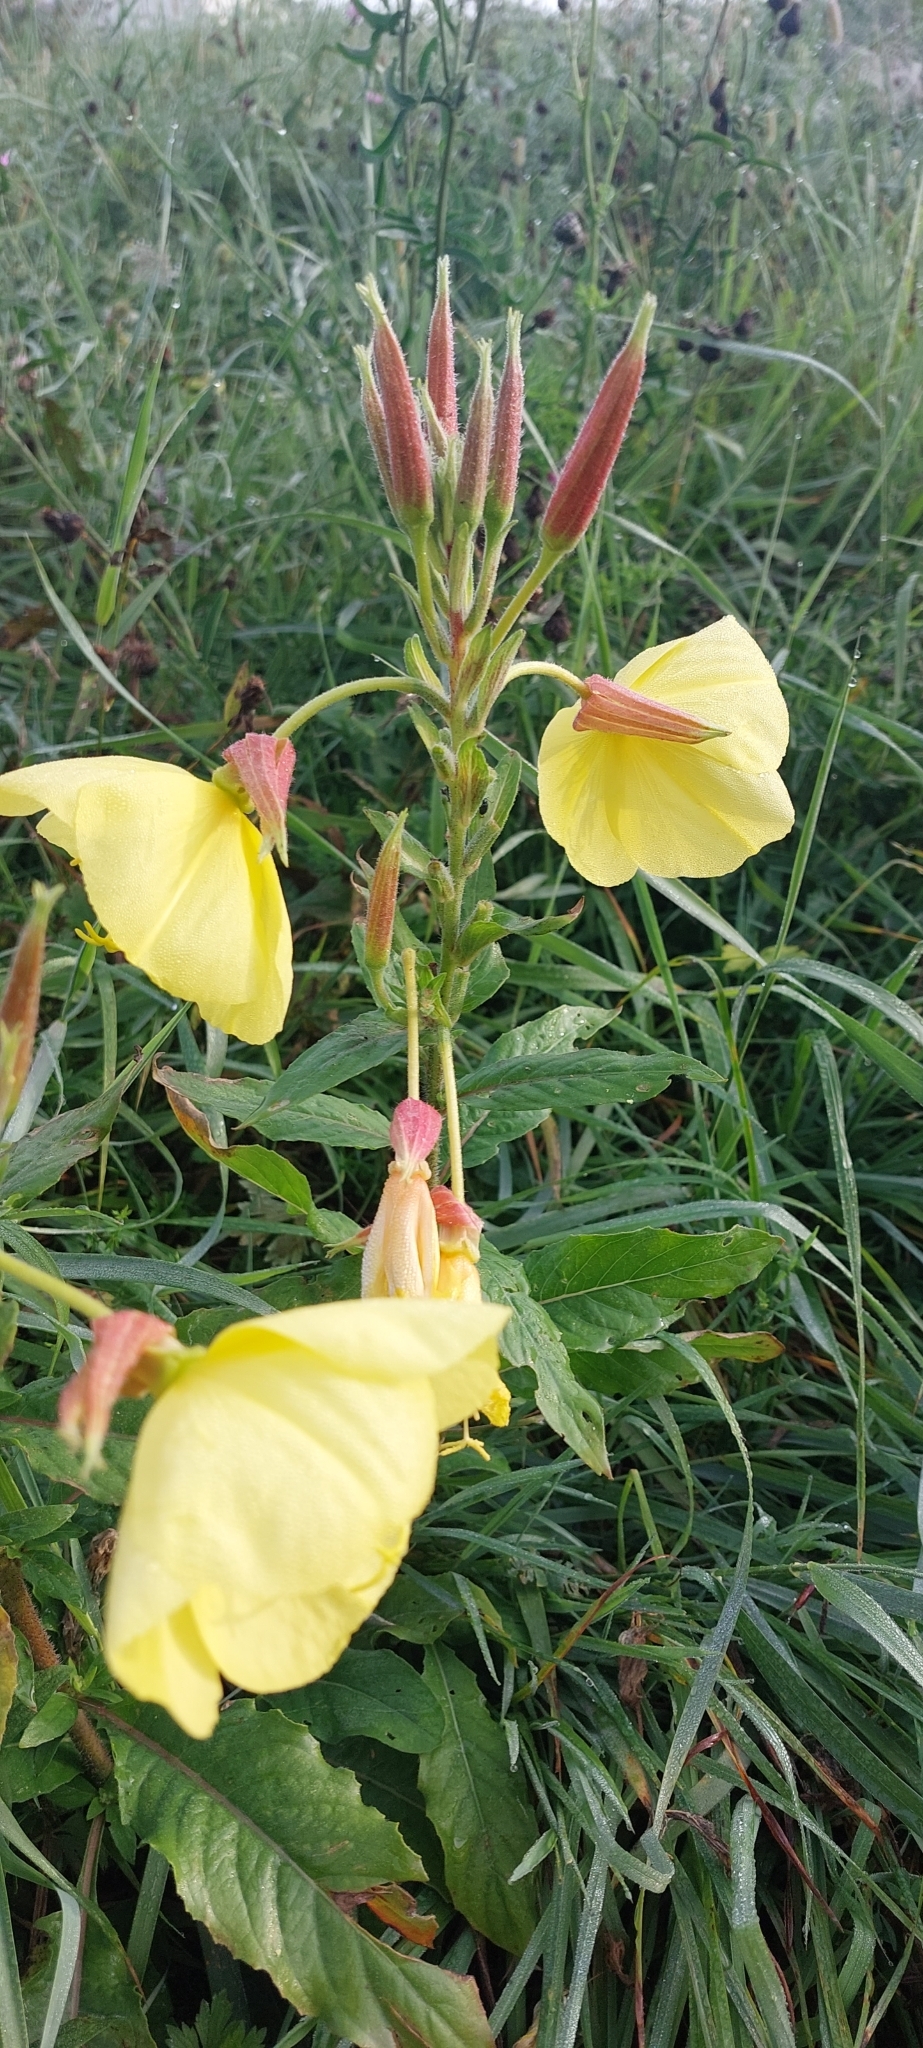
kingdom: Plantae
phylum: Tracheophyta
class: Magnoliopsida
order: Myrtales
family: Onagraceae
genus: Oenothera
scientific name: Oenothera glazioviana
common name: Large-flowered evening-primrose
